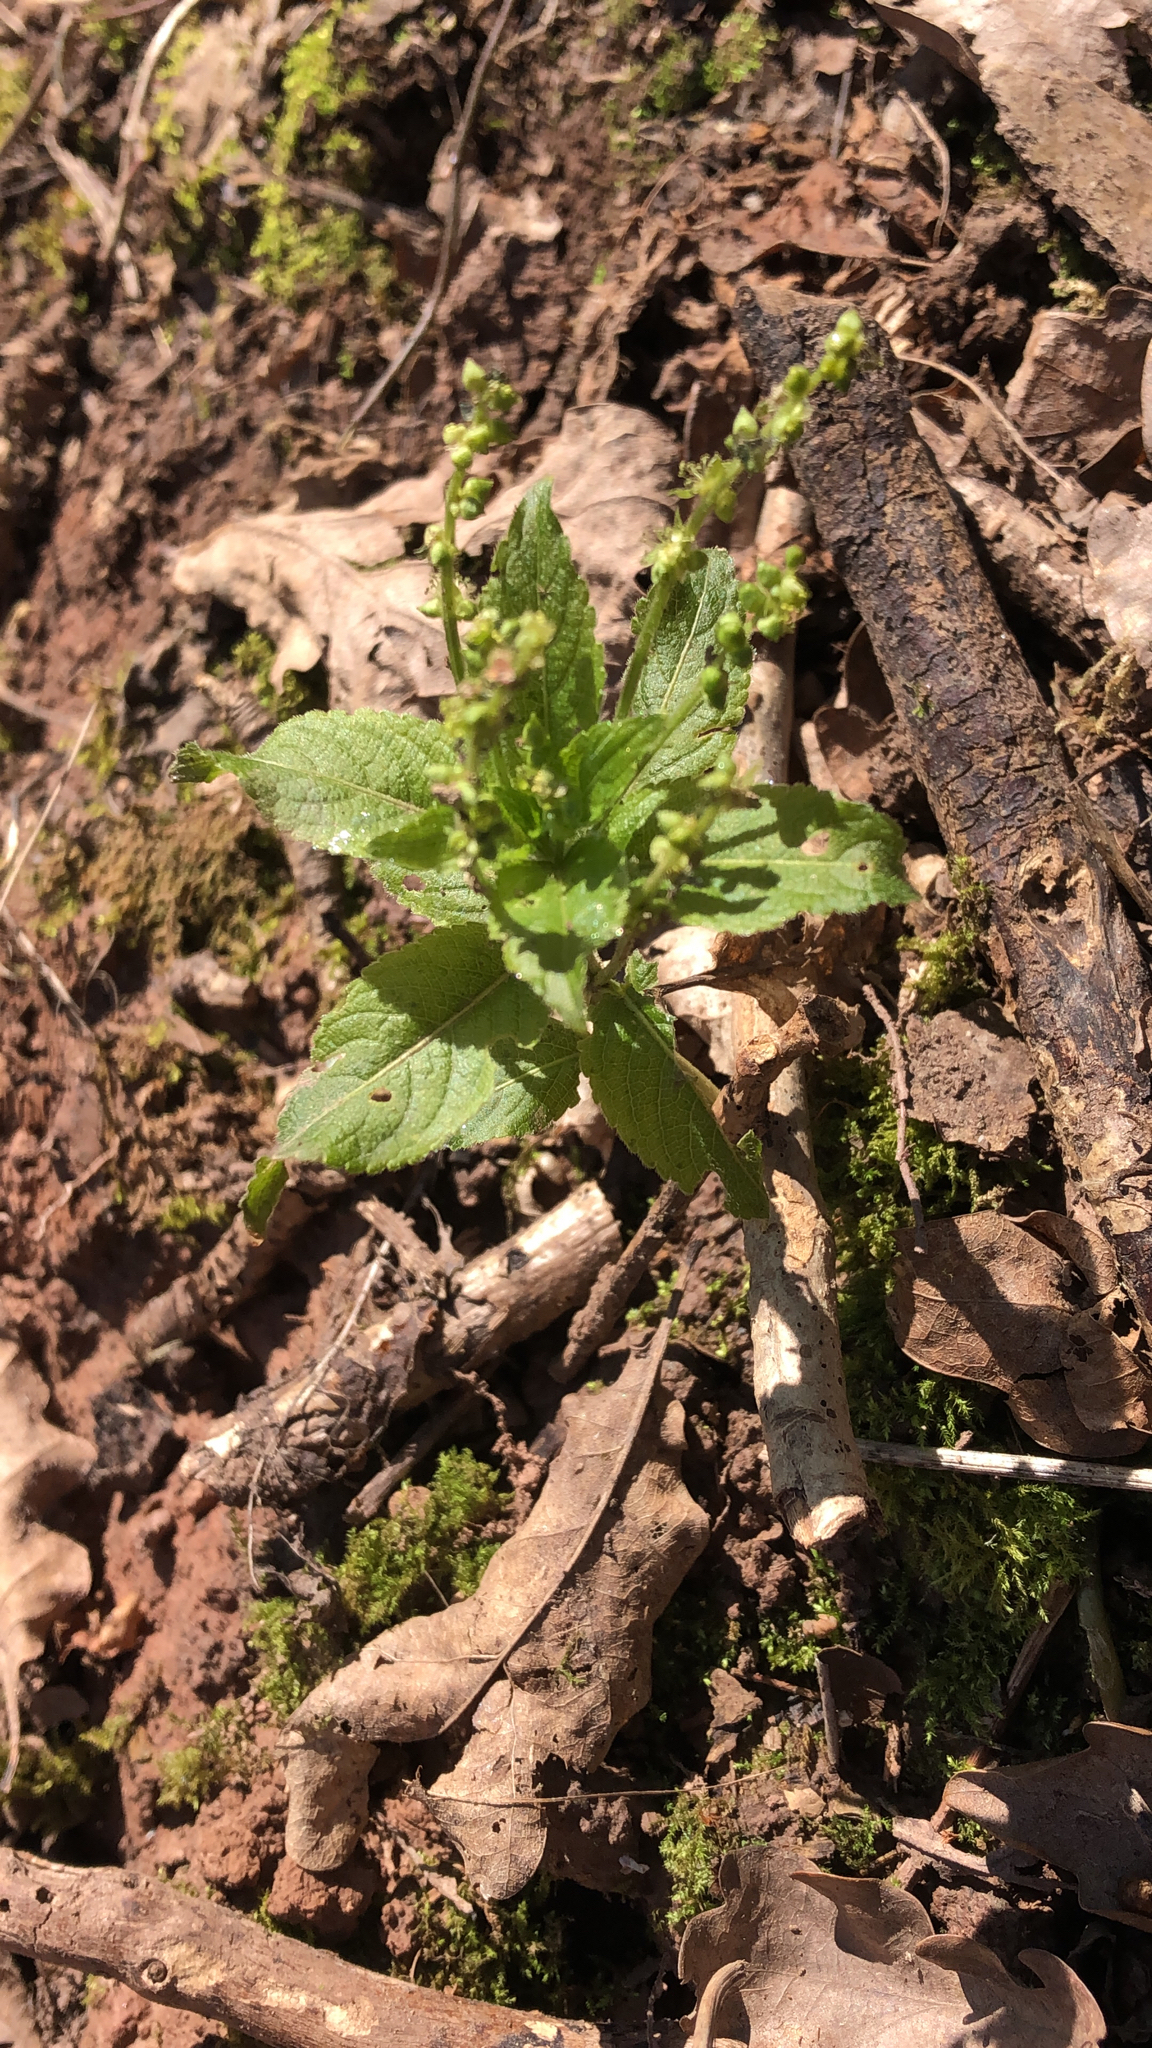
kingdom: Plantae
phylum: Tracheophyta
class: Magnoliopsida
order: Malpighiales
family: Euphorbiaceae
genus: Mercurialis
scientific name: Mercurialis perennis
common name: Dog mercury
